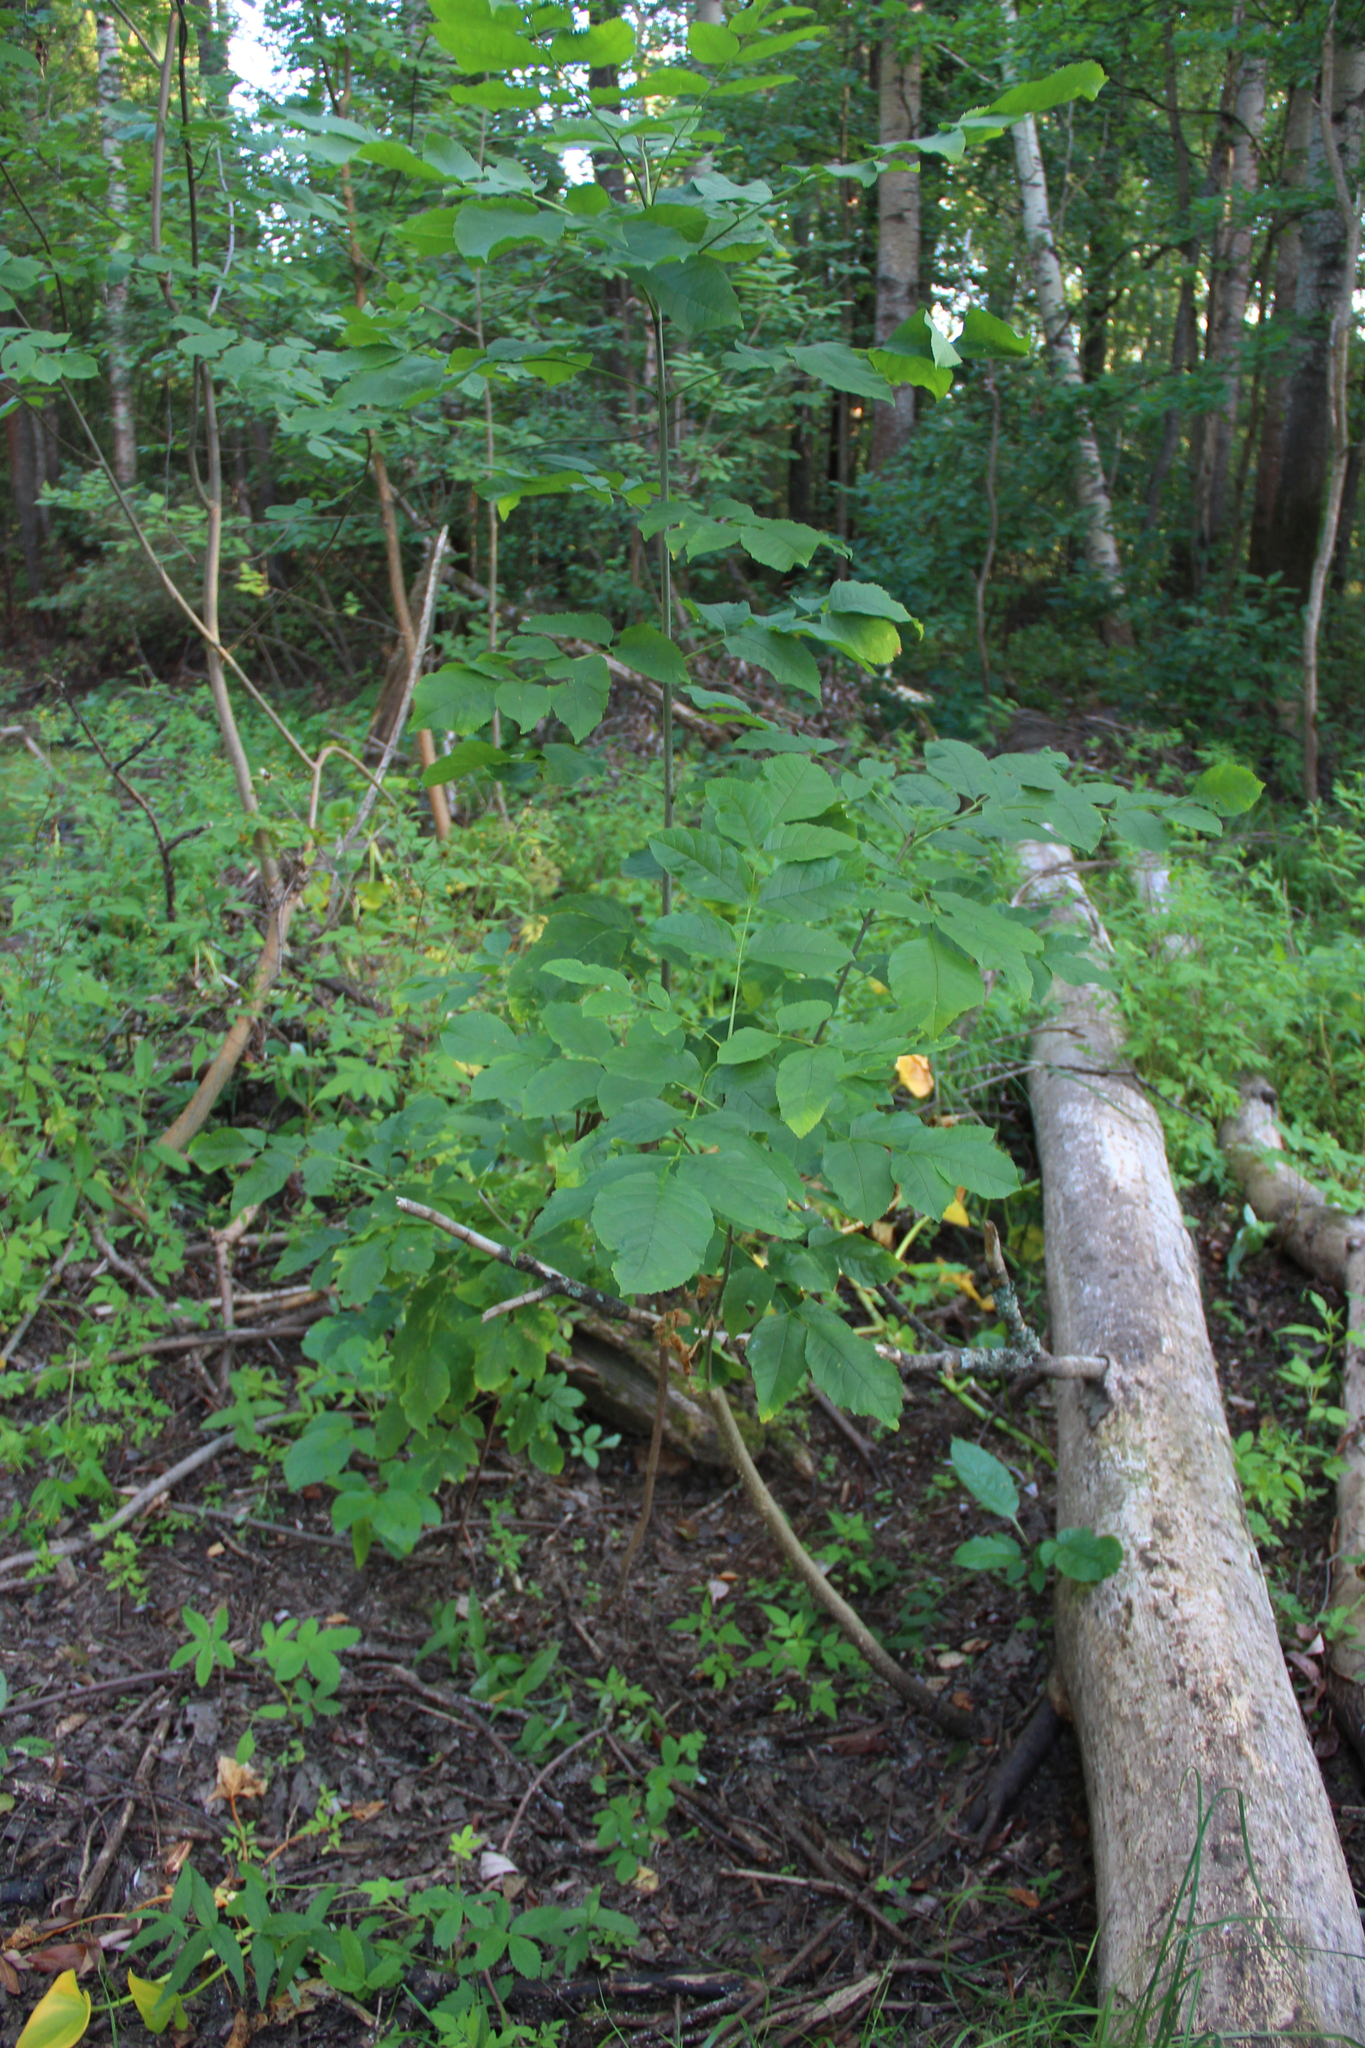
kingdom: Plantae
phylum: Tracheophyta
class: Magnoliopsida
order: Lamiales
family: Oleaceae
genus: Fraxinus
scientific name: Fraxinus excelsior
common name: European ash
